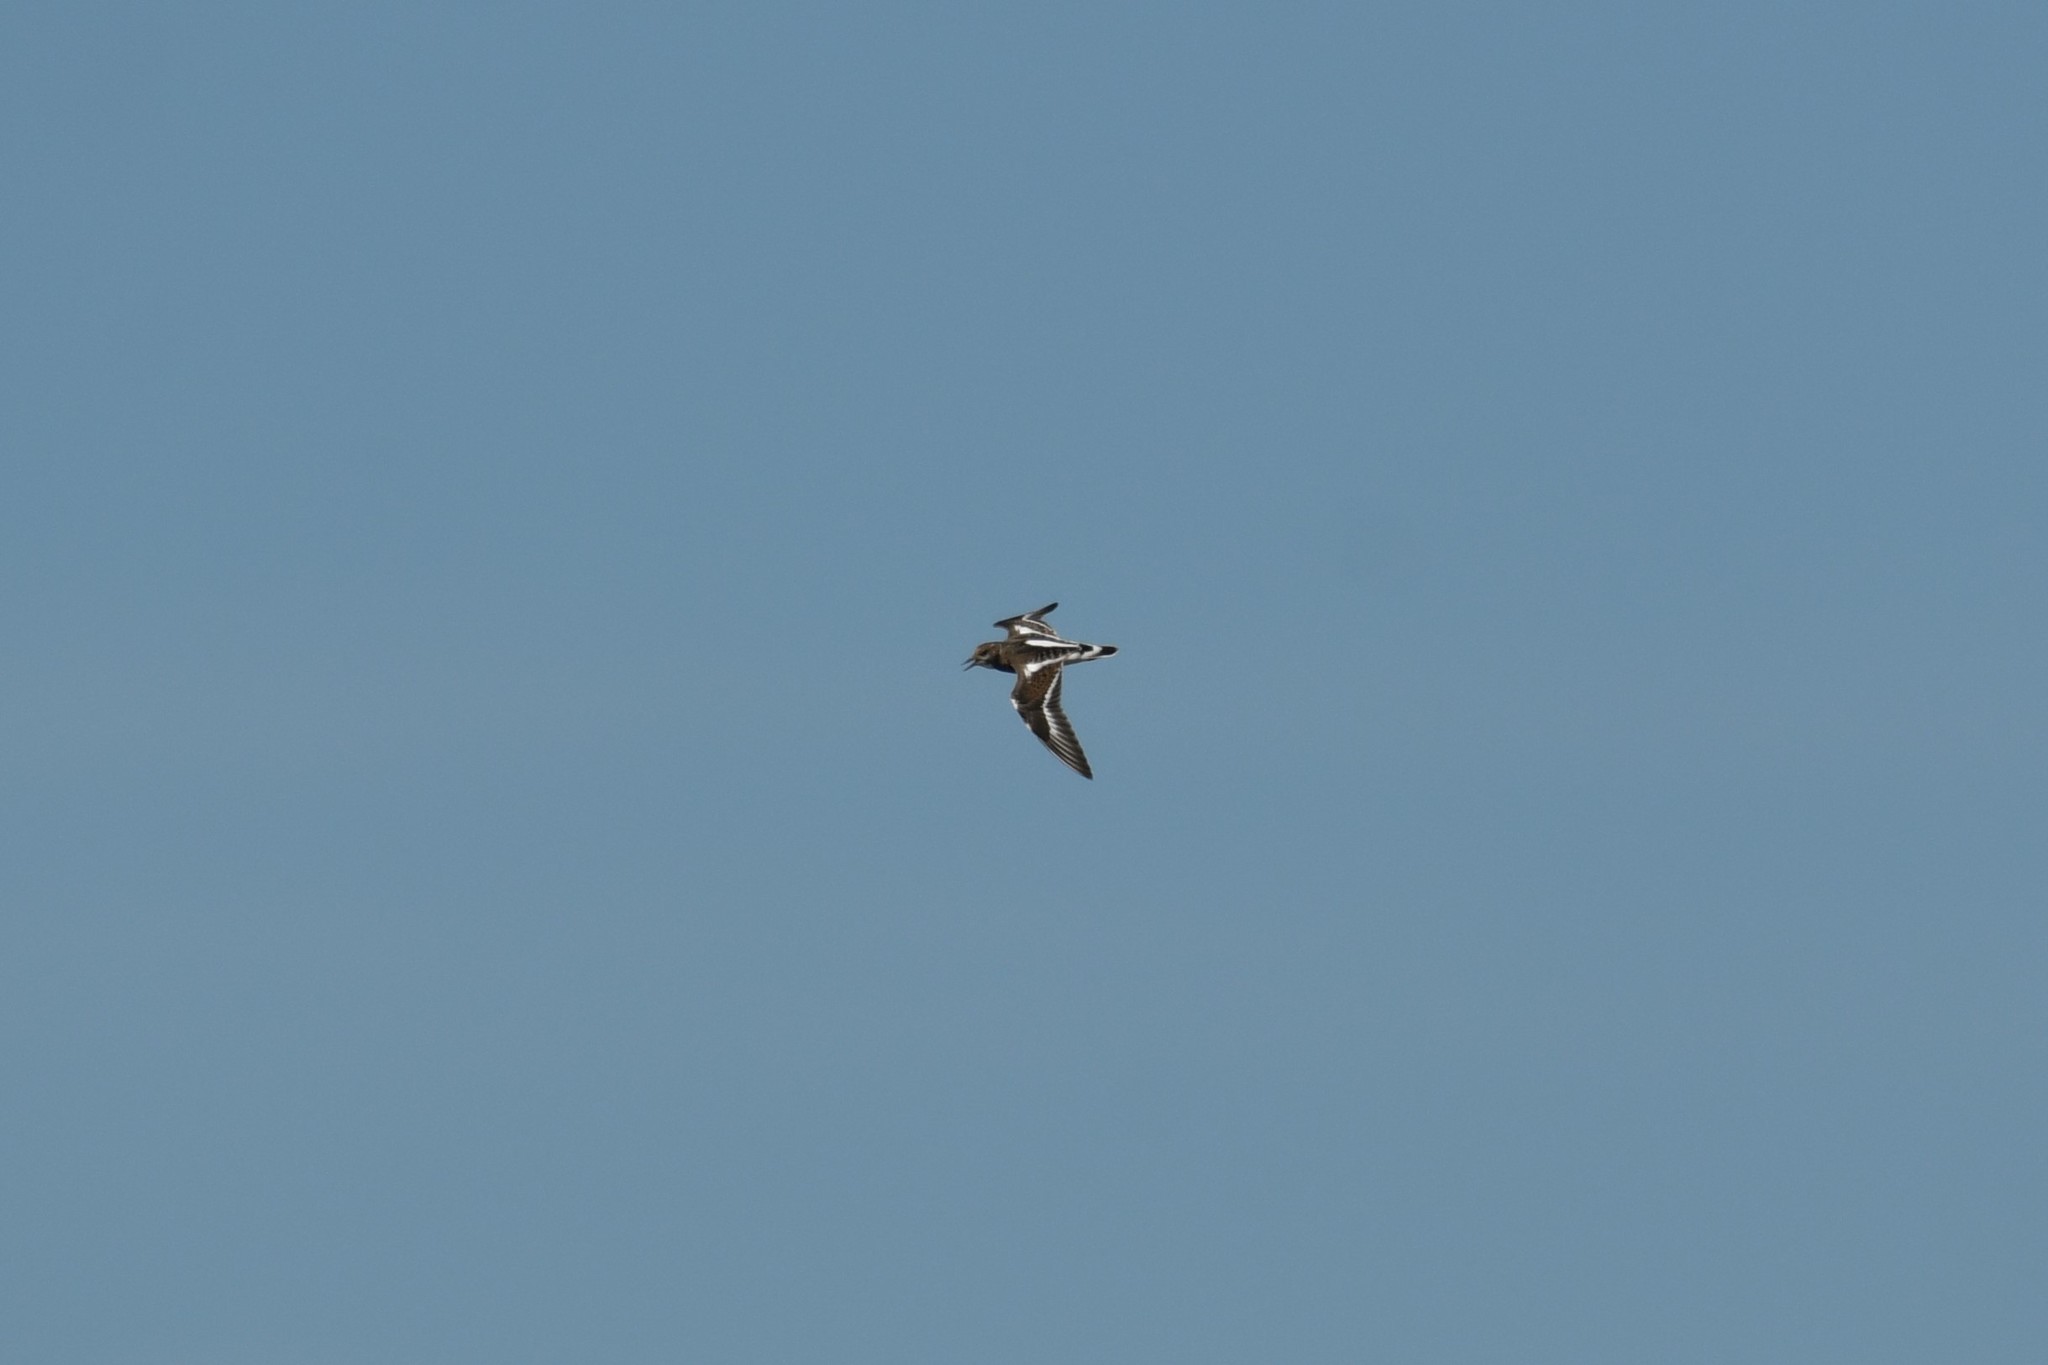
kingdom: Animalia
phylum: Chordata
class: Aves
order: Charadriiformes
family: Scolopacidae
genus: Arenaria
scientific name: Arenaria interpres
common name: Ruddy turnstone
